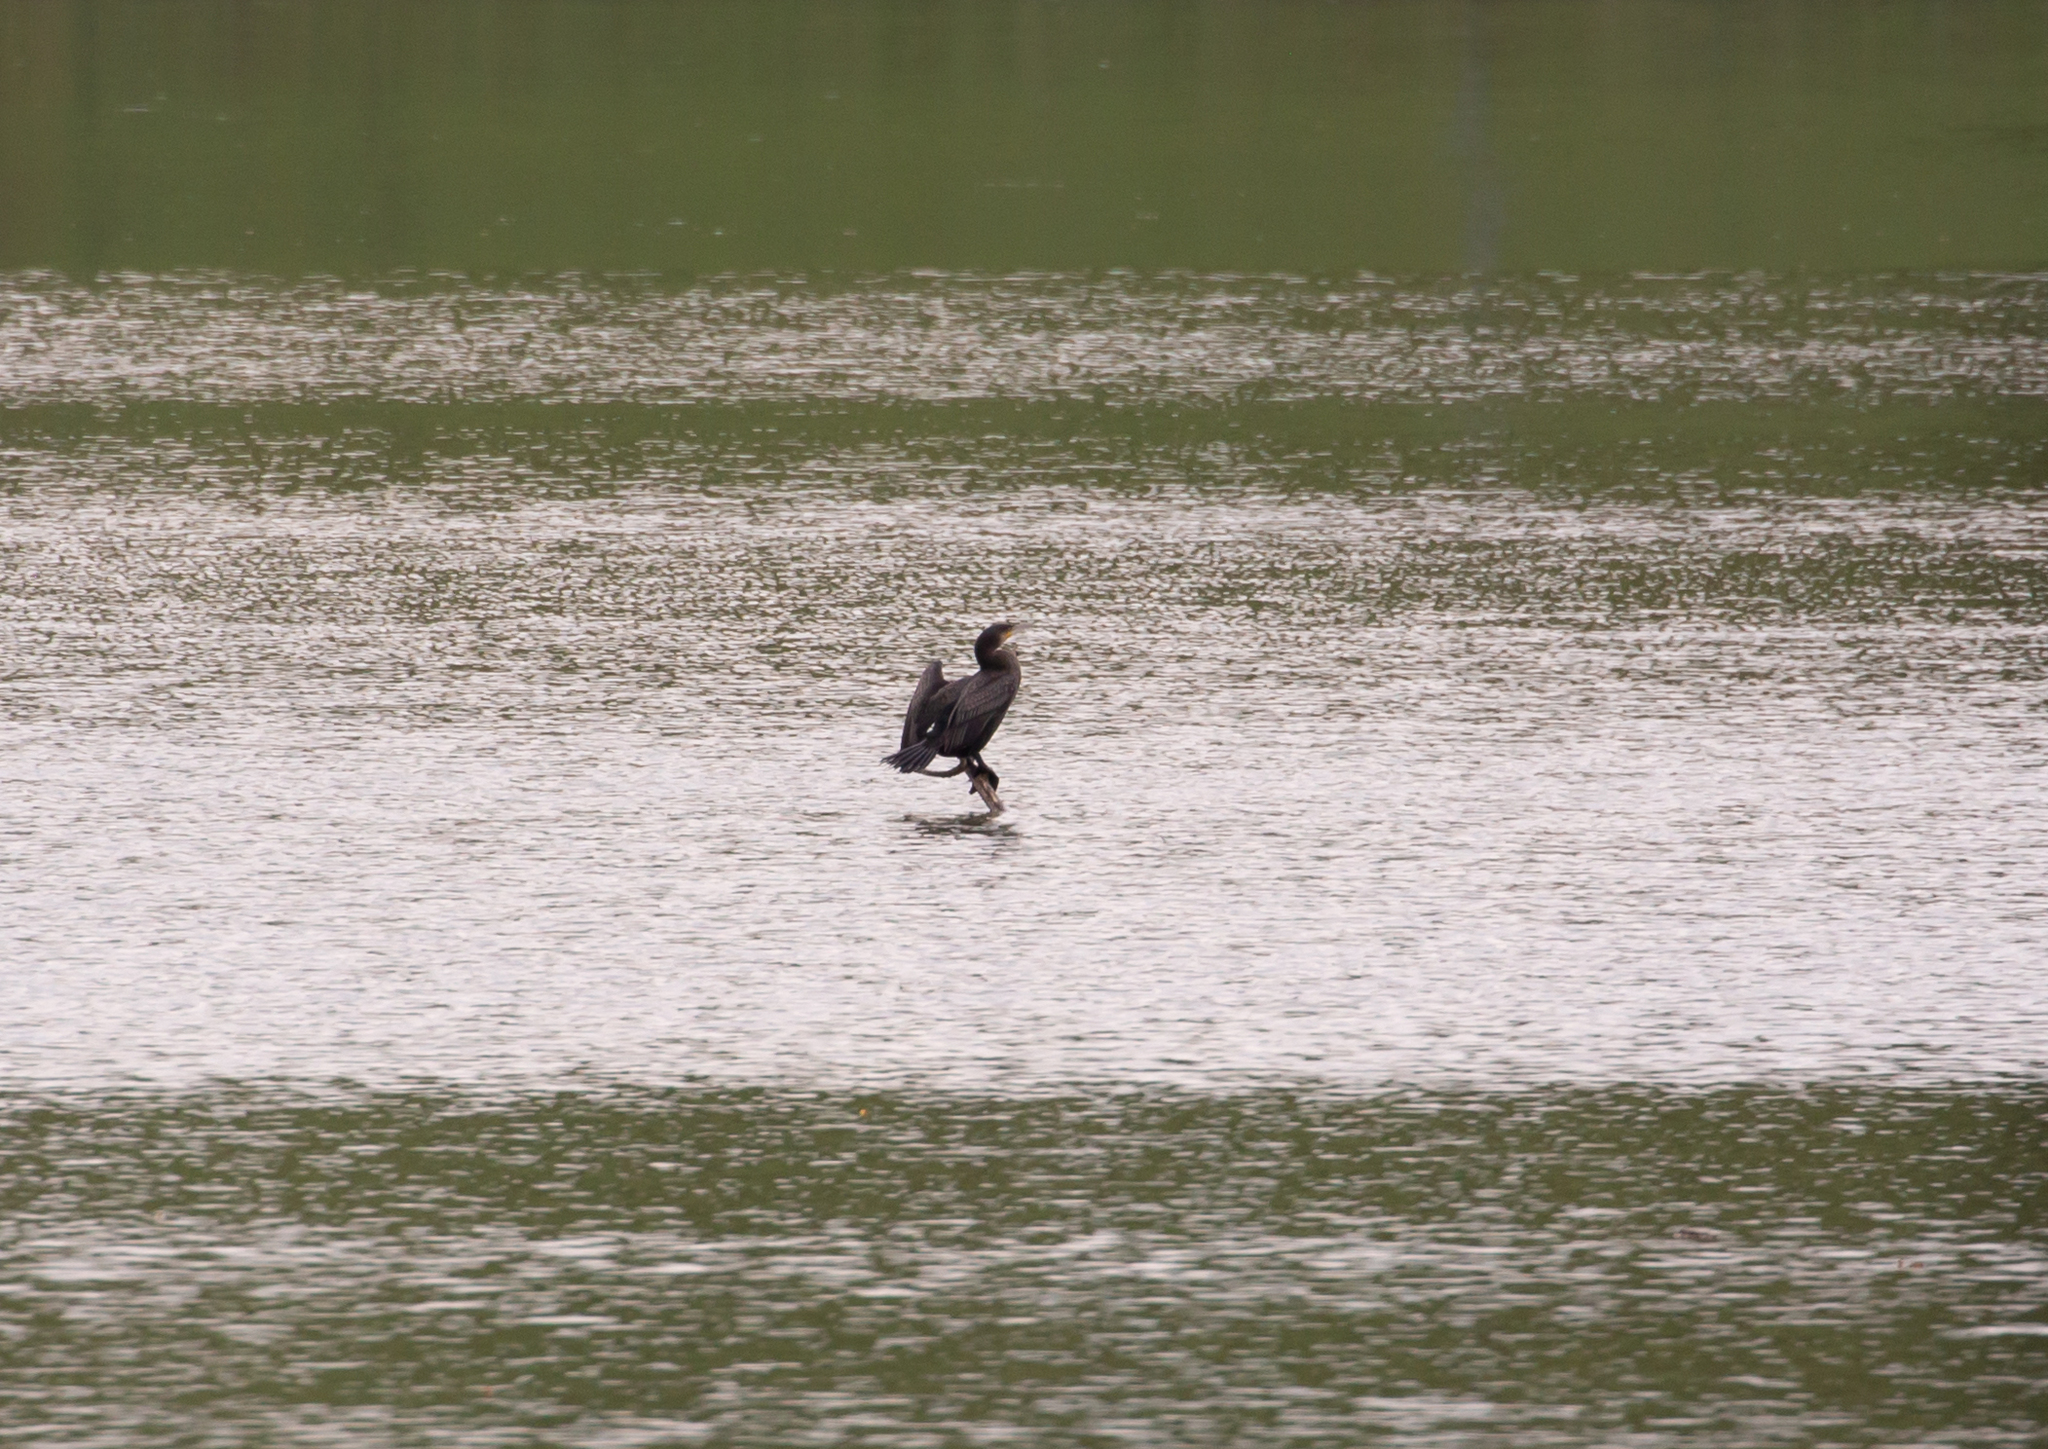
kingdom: Animalia
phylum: Chordata
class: Aves
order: Suliformes
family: Phalacrocoracidae
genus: Phalacrocorax
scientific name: Phalacrocorax carbo
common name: Great cormorant
